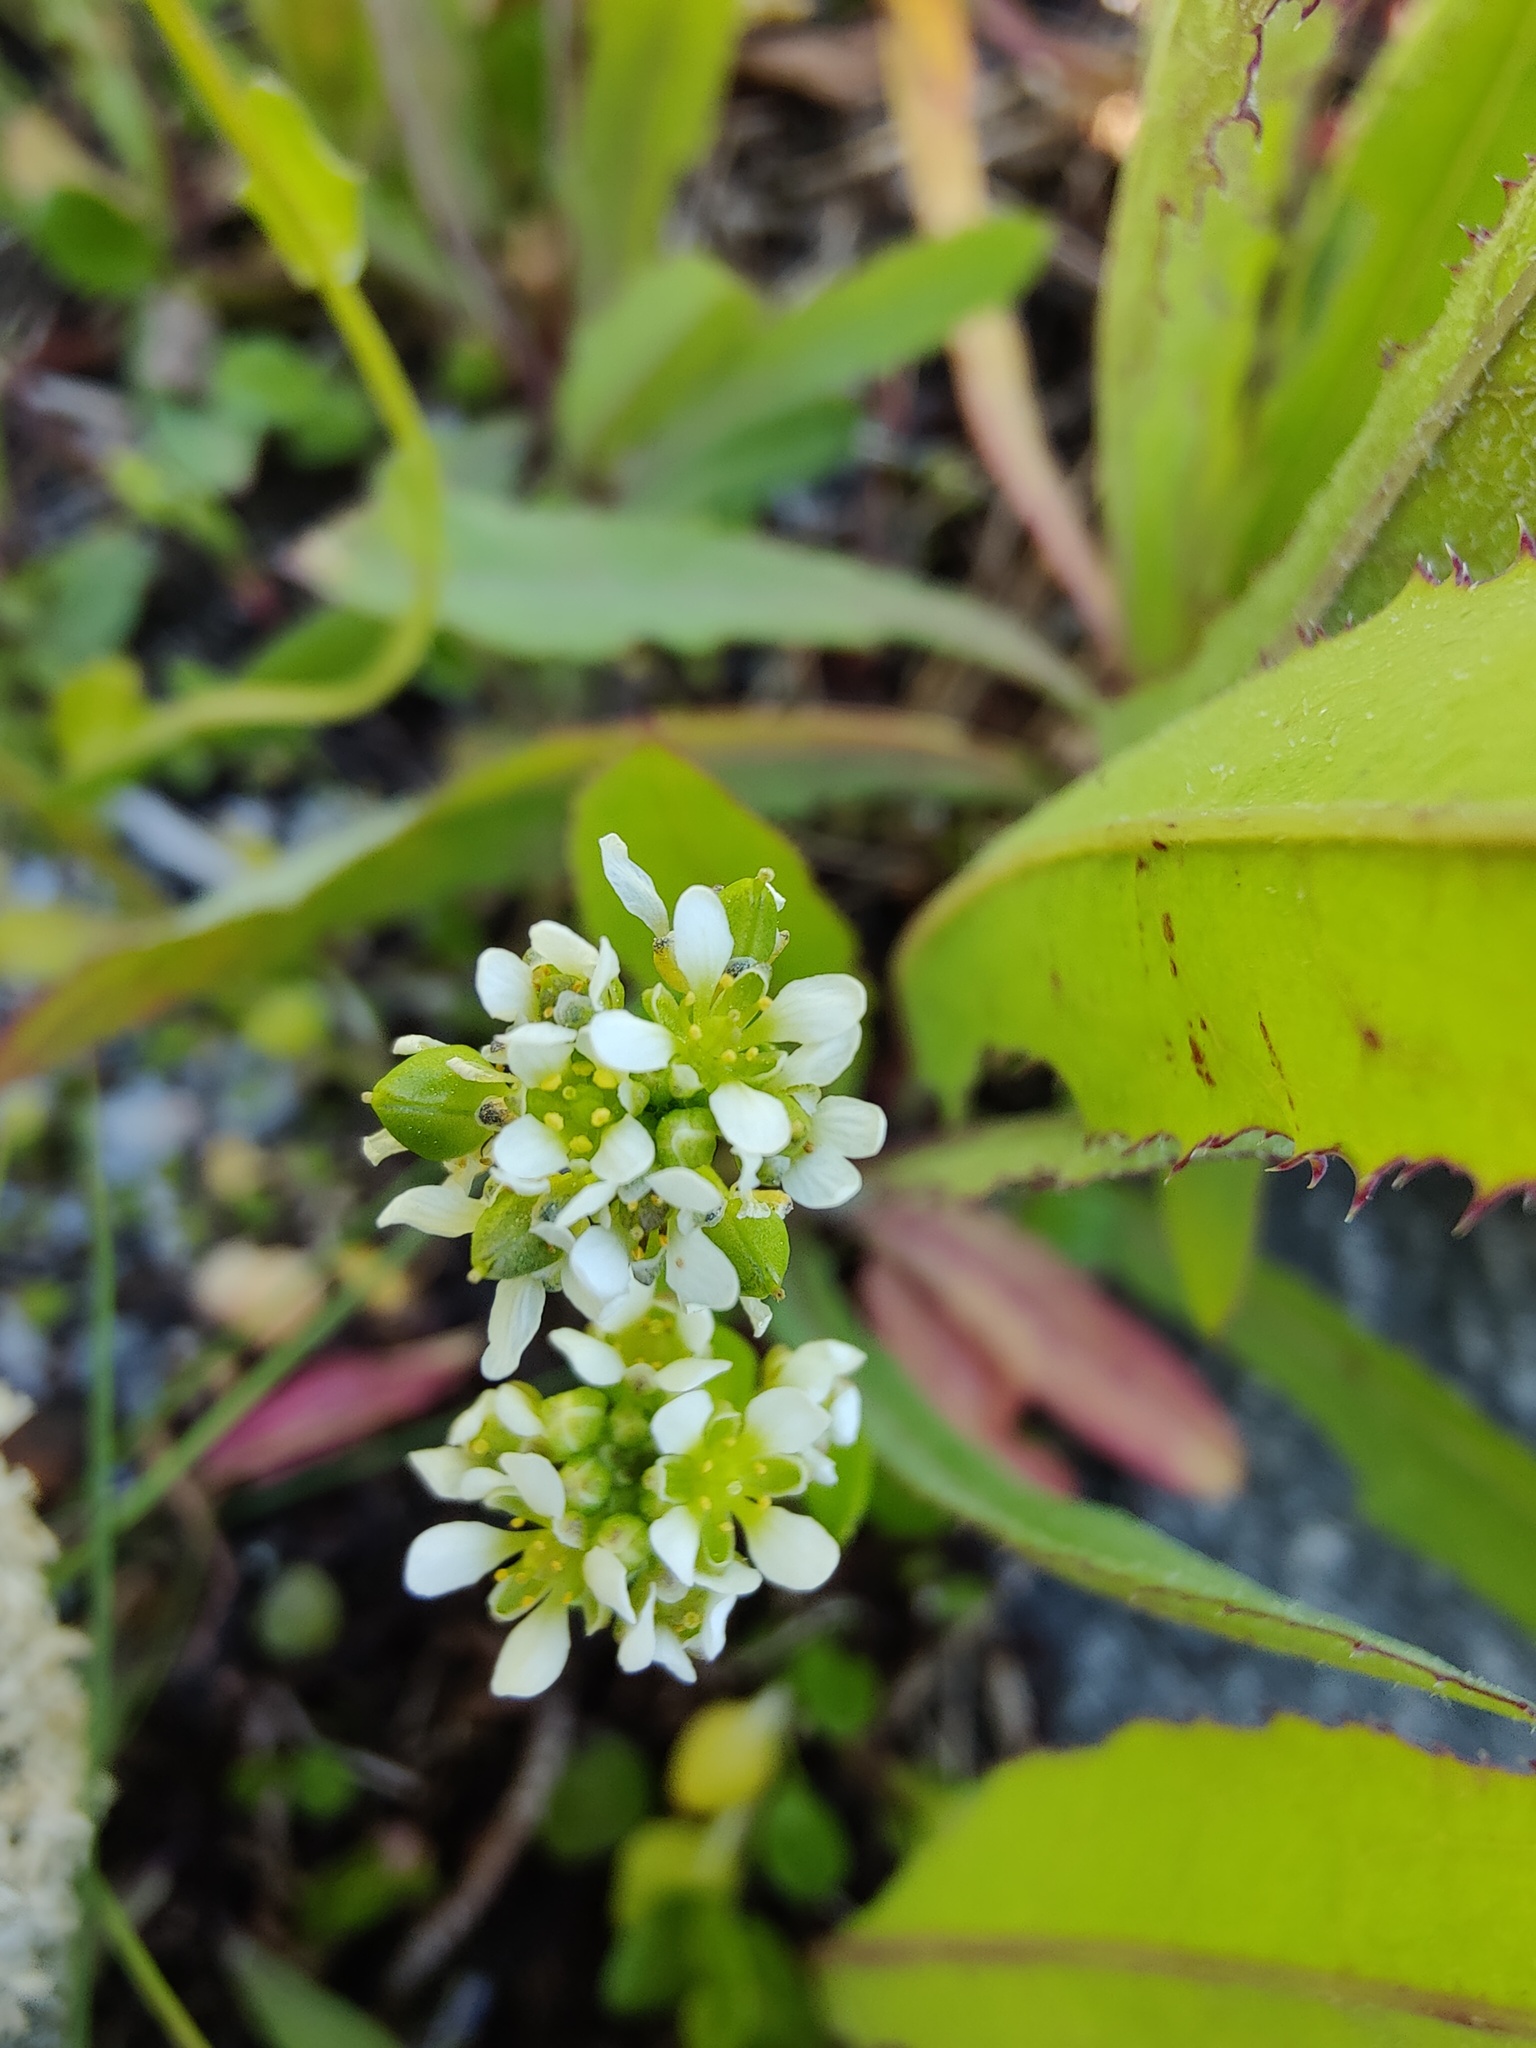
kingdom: Plantae
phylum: Tracheophyta
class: Magnoliopsida
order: Brassicales
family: Brassicaceae
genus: Cochlearia
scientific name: Cochlearia groenlandica
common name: Danish scurvygrass
